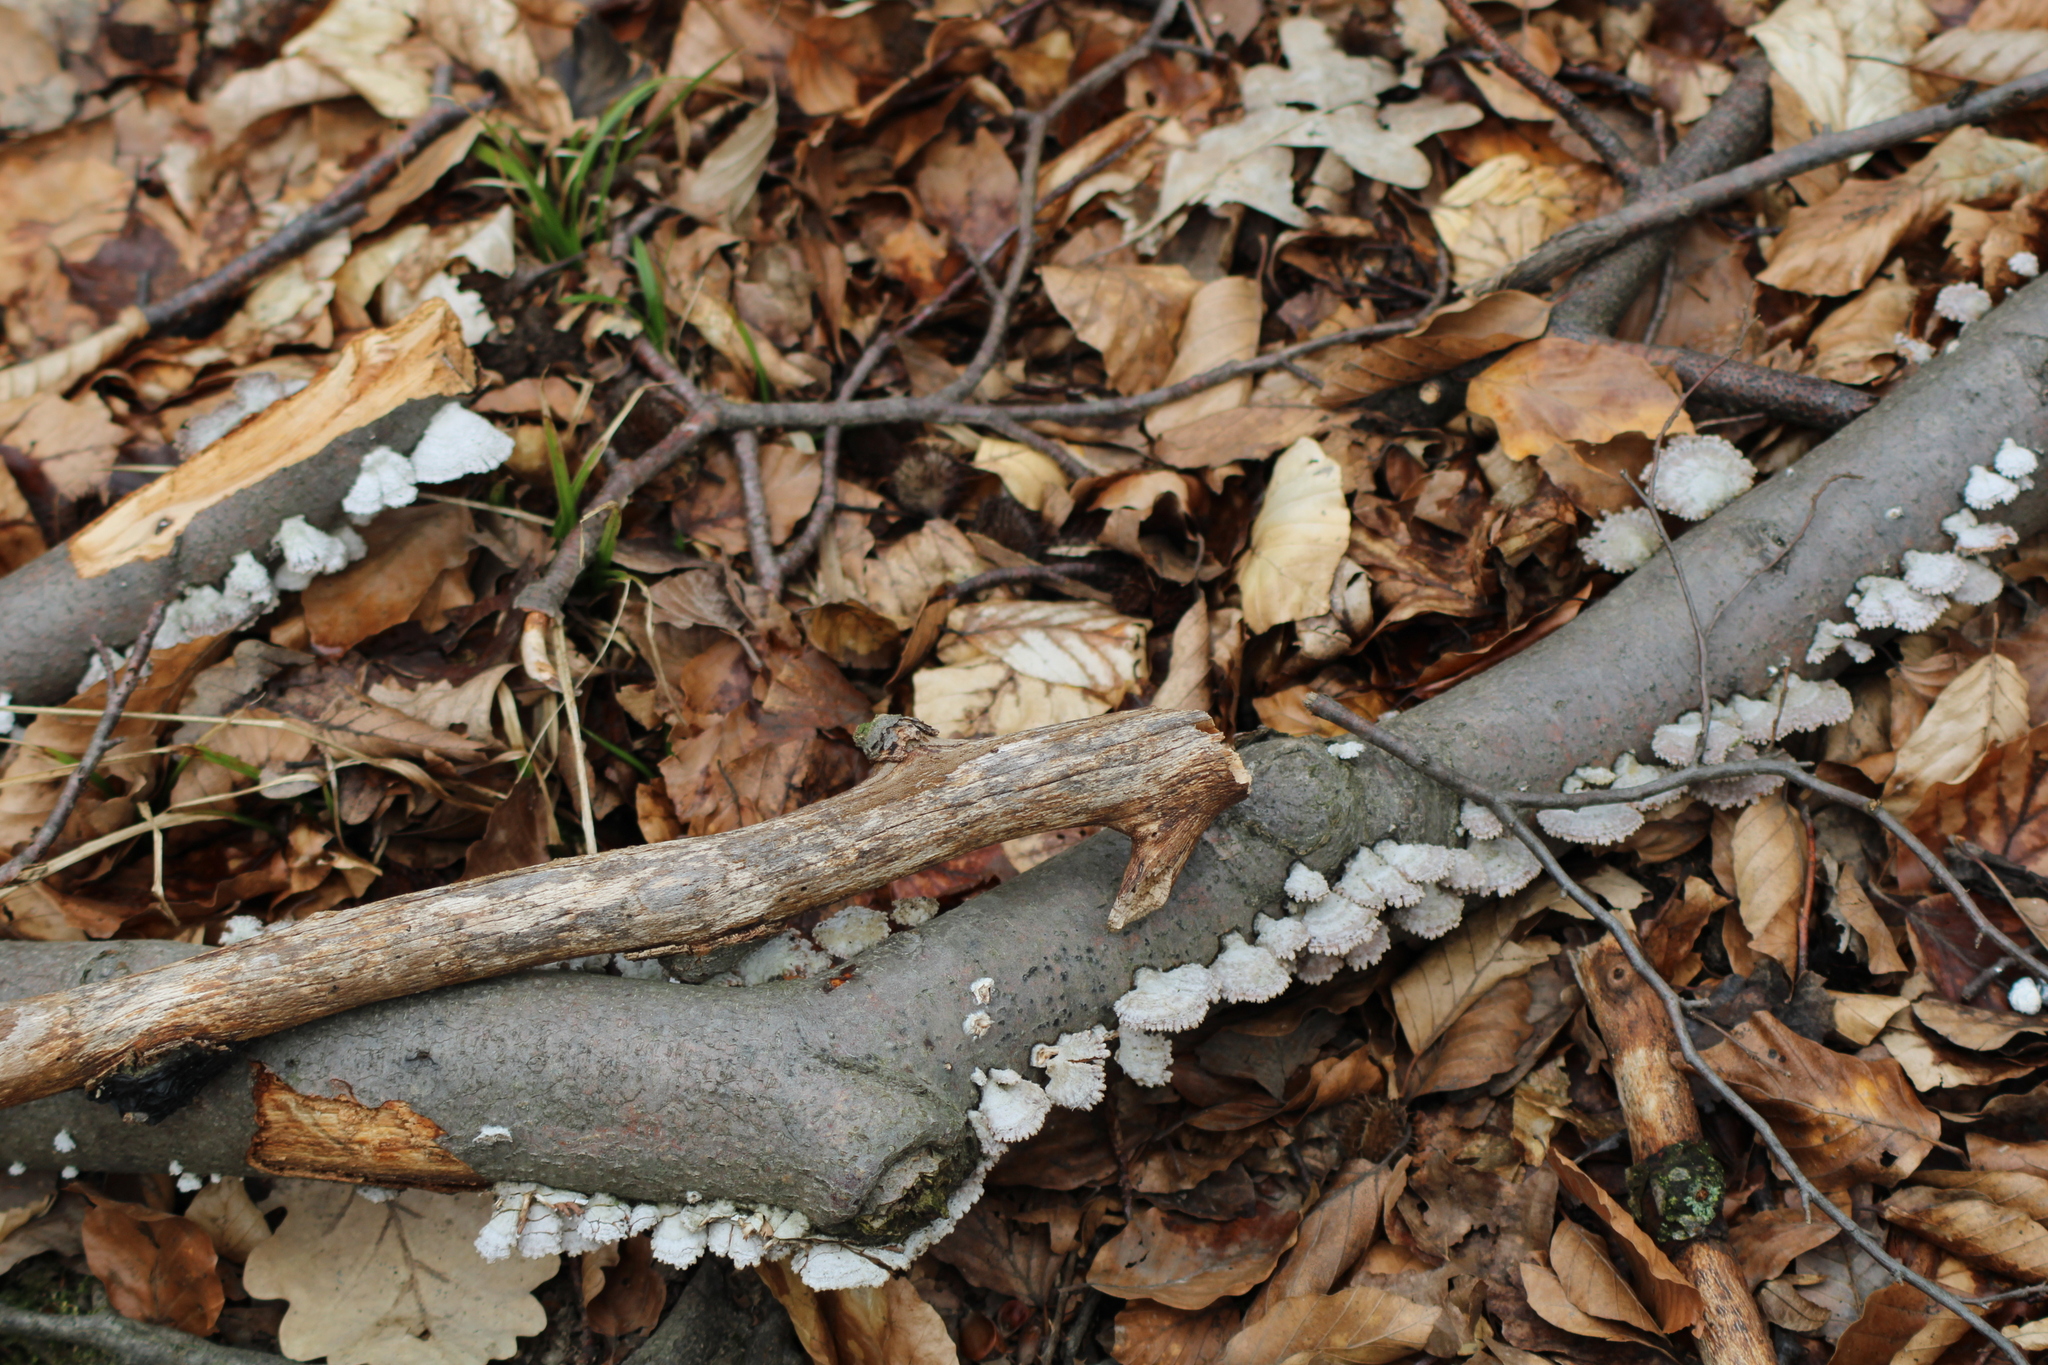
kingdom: Fungi
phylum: Basidiomycota
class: Agaricomycetes
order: Agaricales
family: Schizophyllaceae
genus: Schizophyllum
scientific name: Schizophyllum commune
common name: Common porecrust
